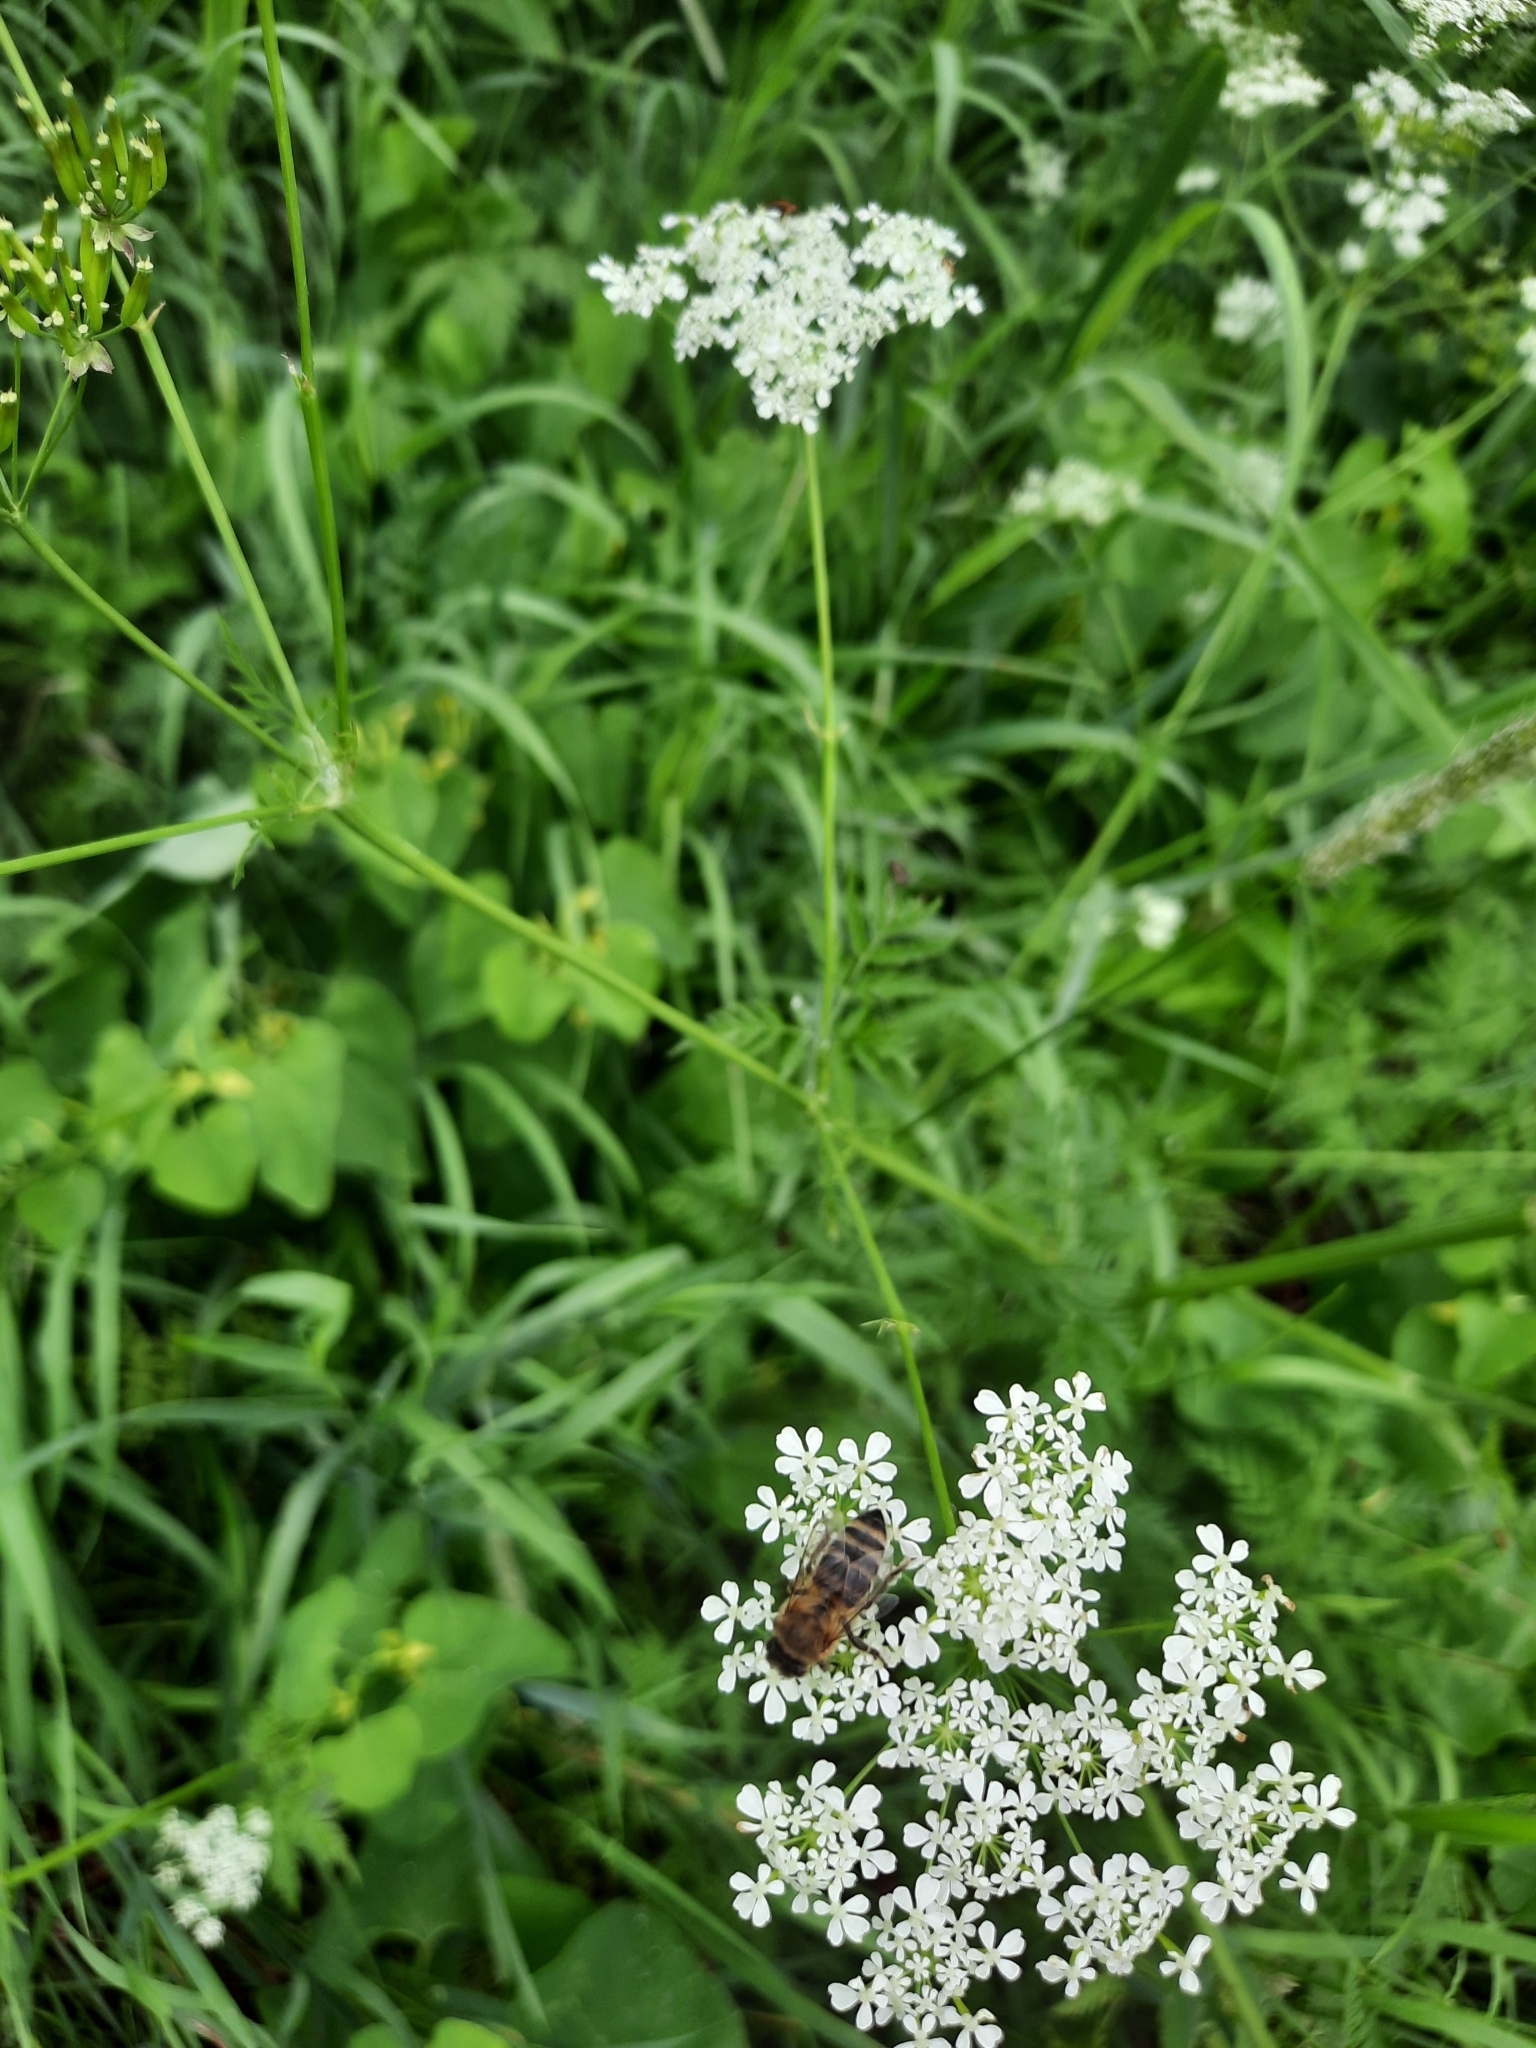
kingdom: Animalia
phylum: Arthropoda
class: Insecta
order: Hymenoptera
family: Apidae
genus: Apis
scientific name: Apis mellifera
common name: Honey bee
